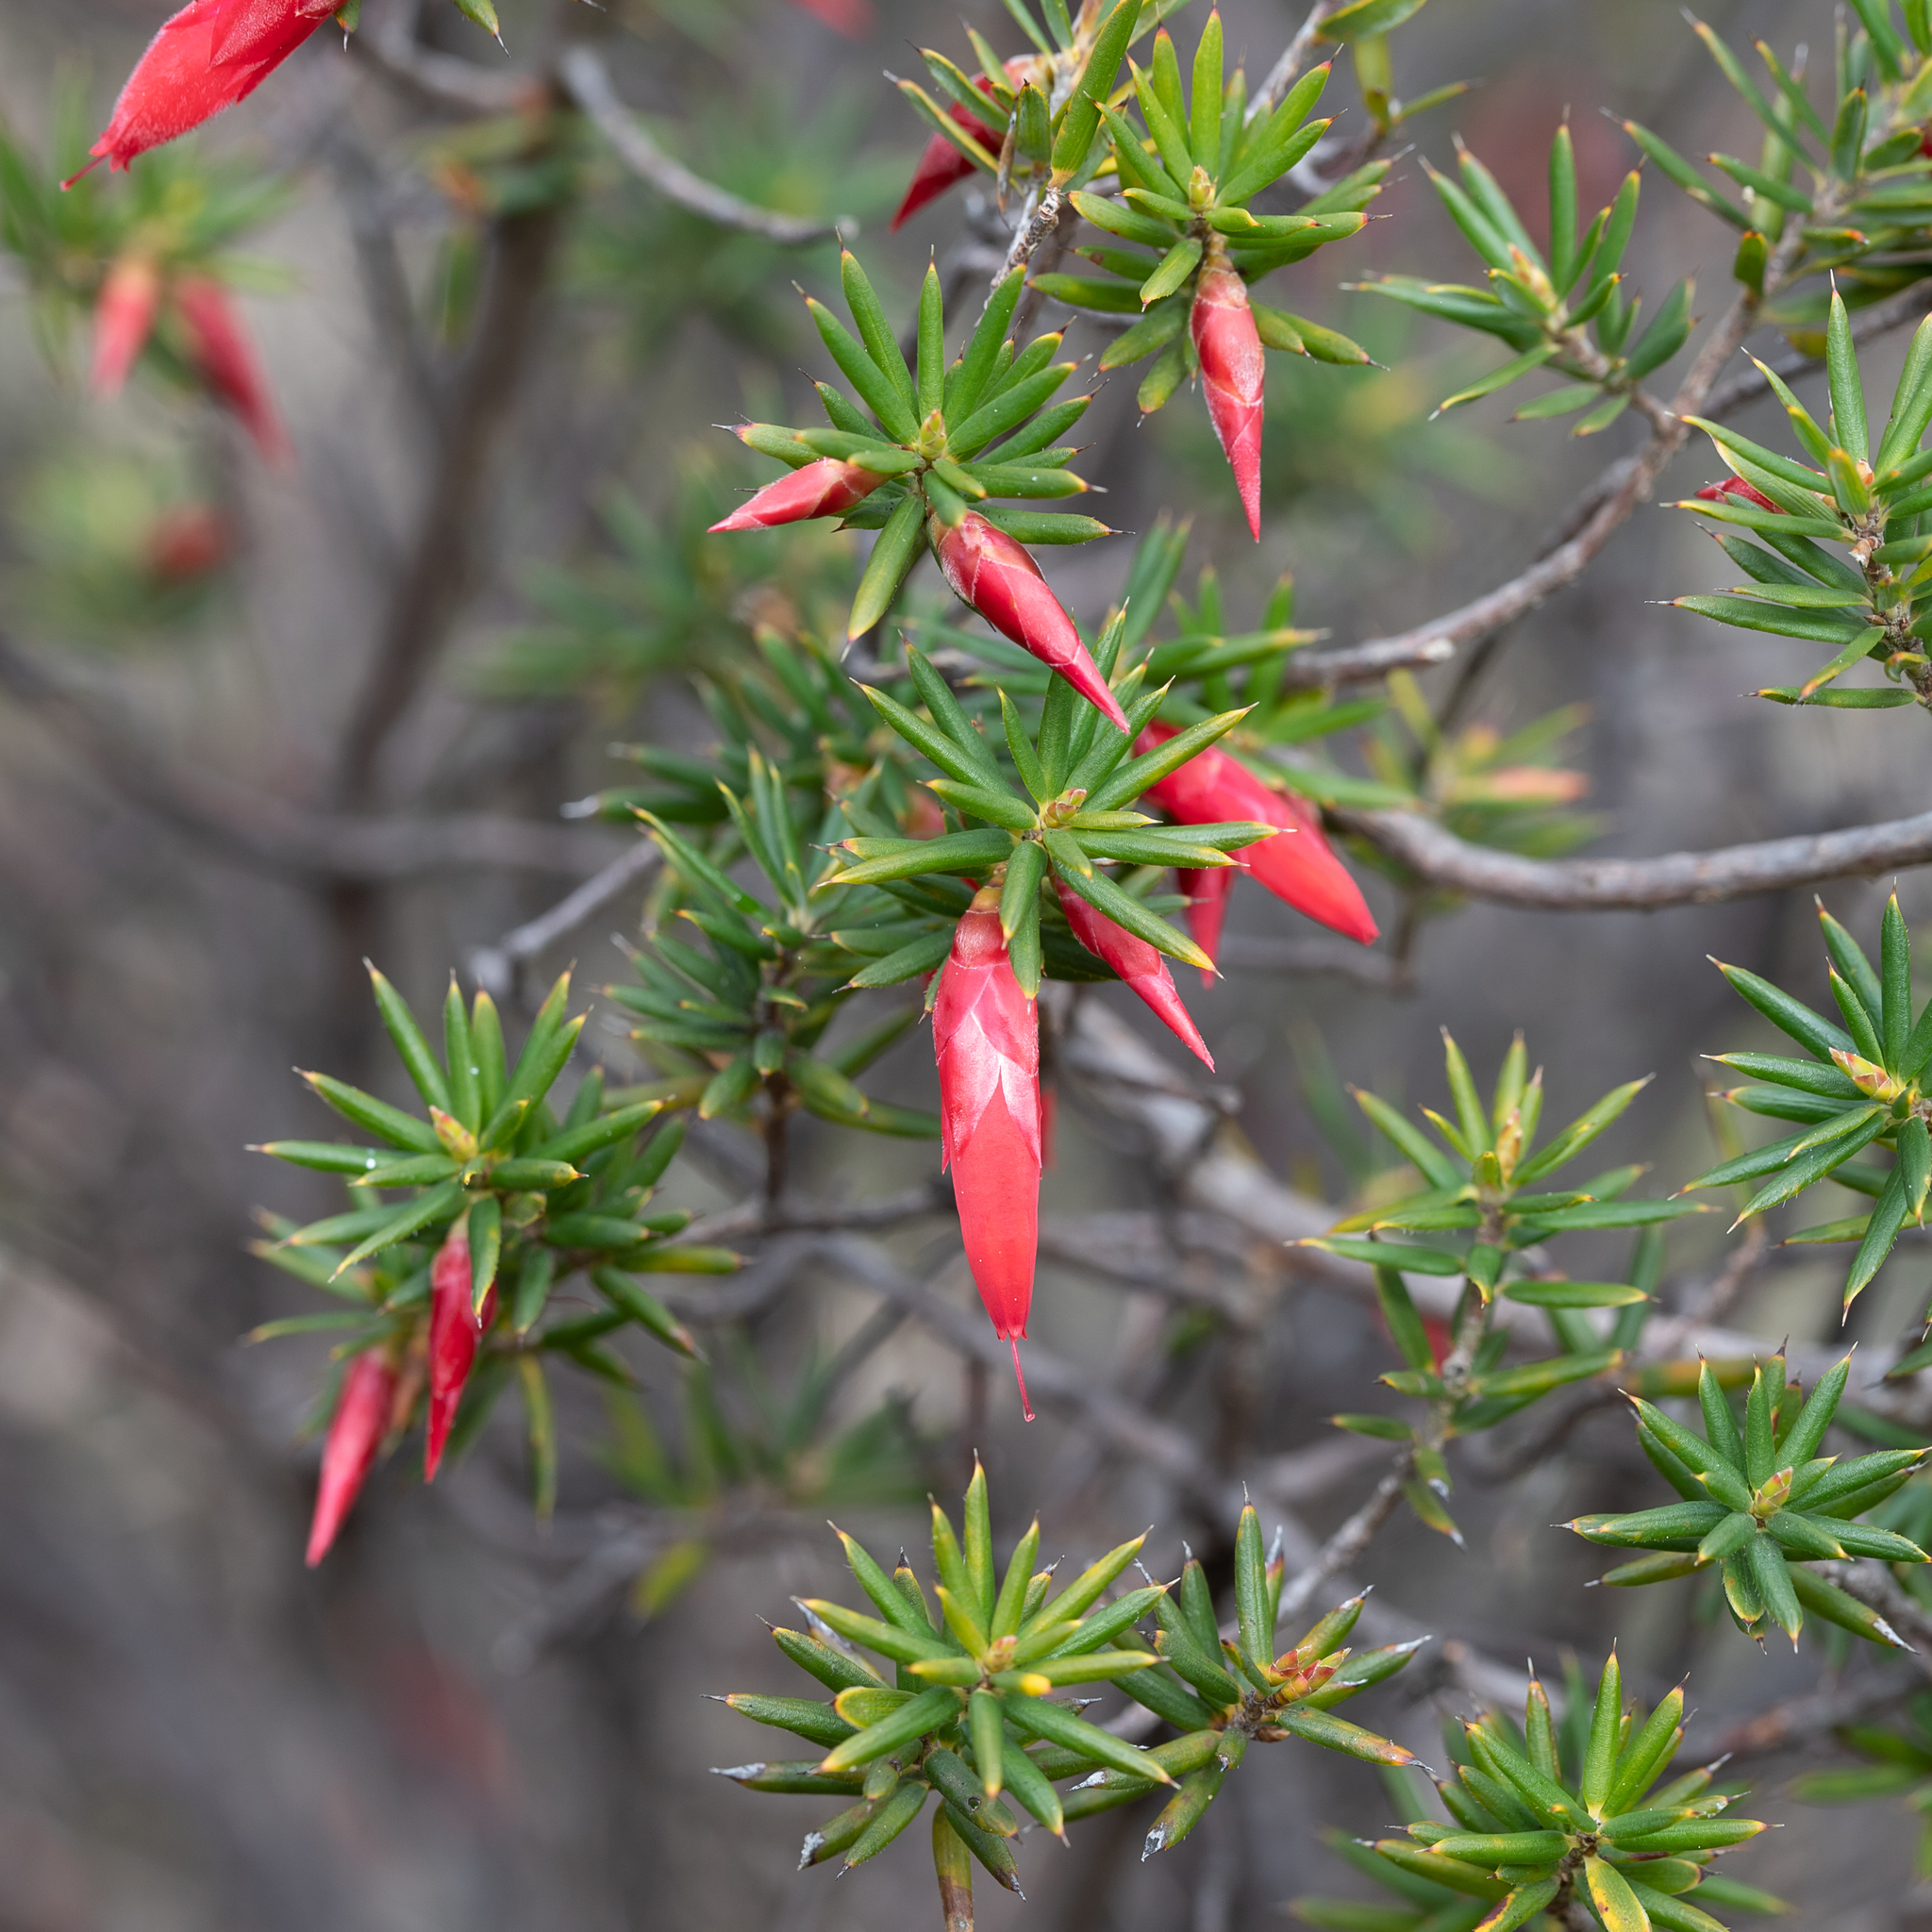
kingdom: Plantae
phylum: Tracheophyta
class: Magnoliopsida
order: Ericales
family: Ericaceae
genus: Stenanthera
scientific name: Stenanthera conostephioides
